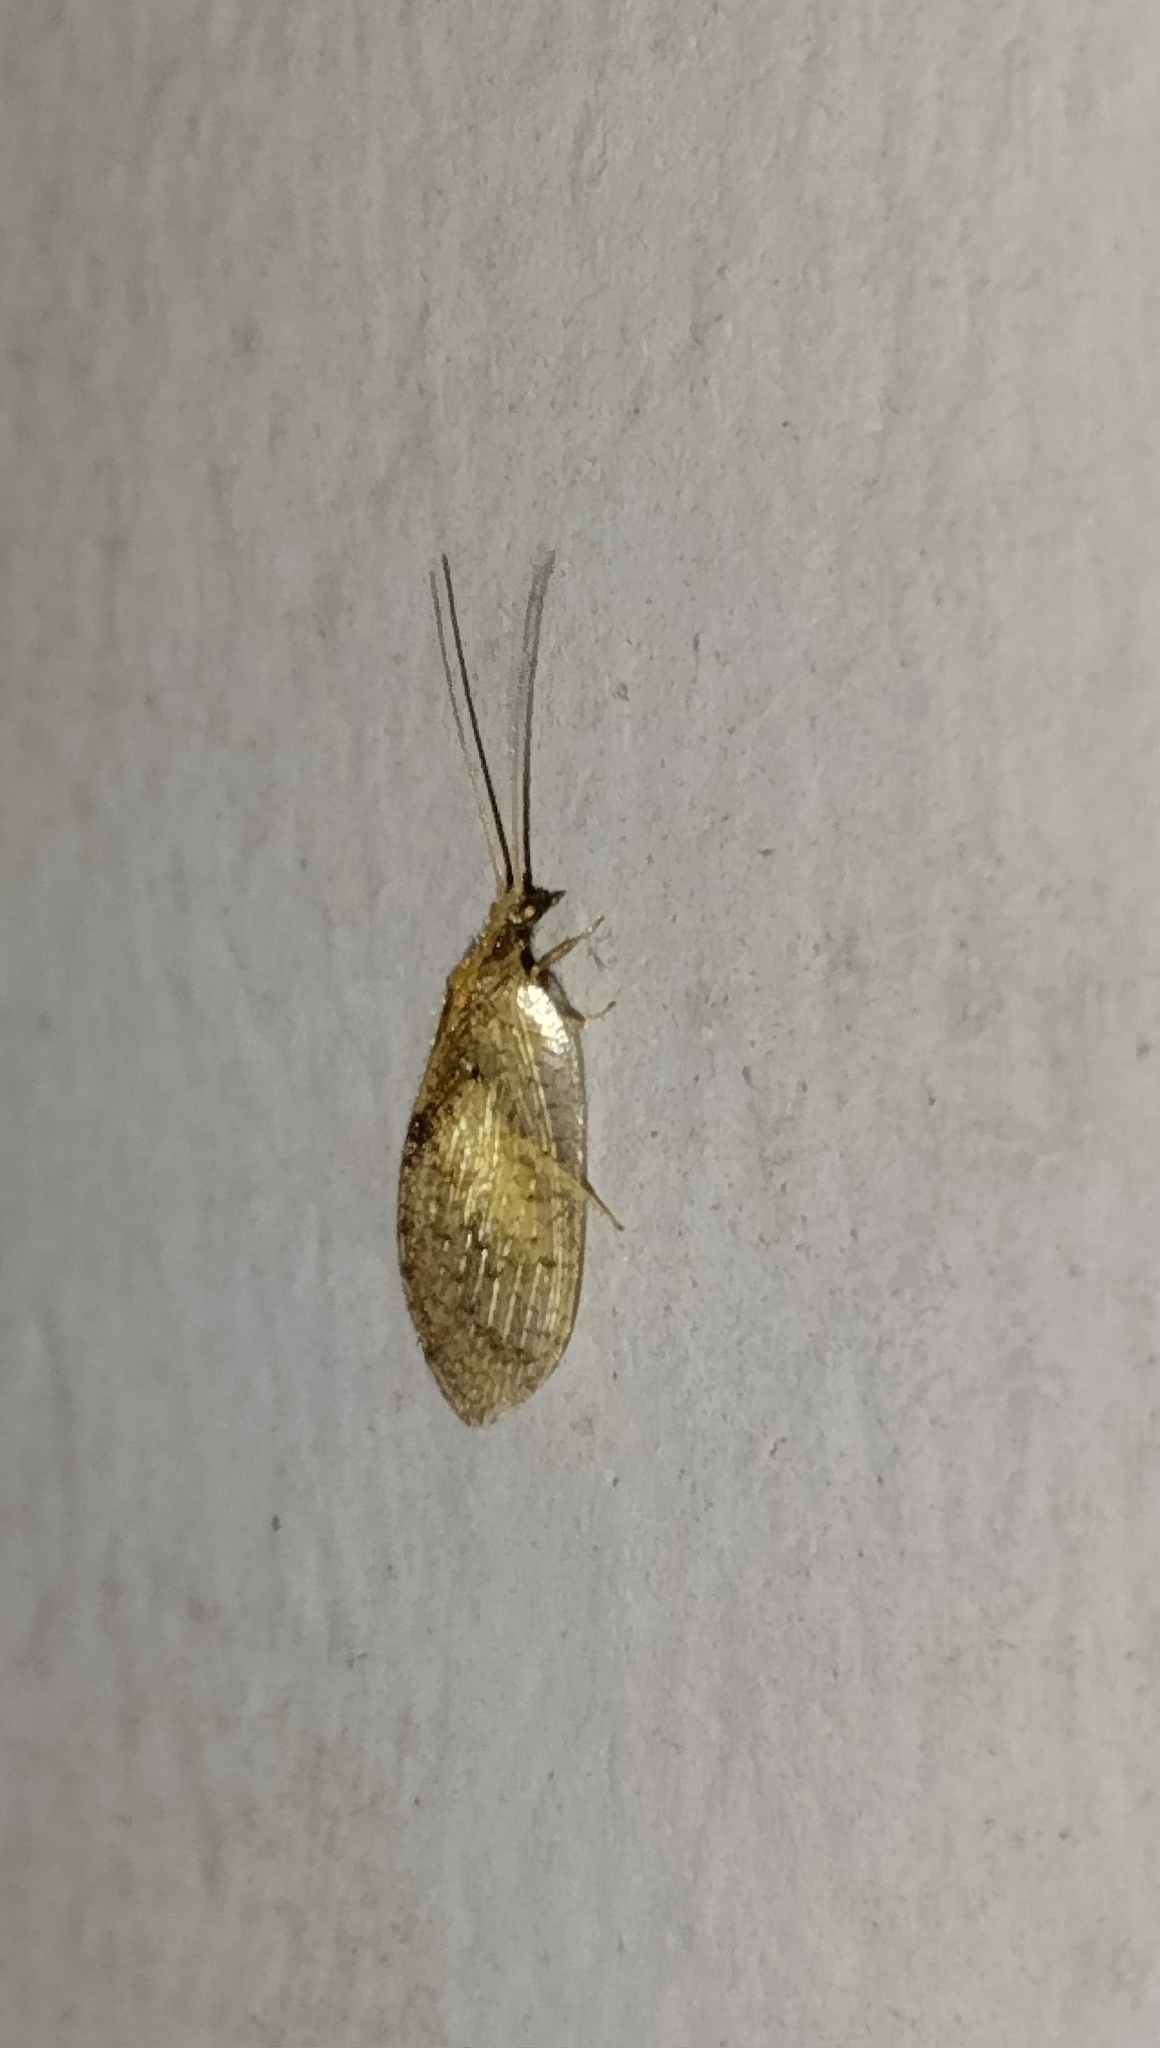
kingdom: Animalia
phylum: Arthropoda
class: Insecta
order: Neuroptera
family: Hemerobiidae
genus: Hemerobius
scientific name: Hemerobius bolivari
